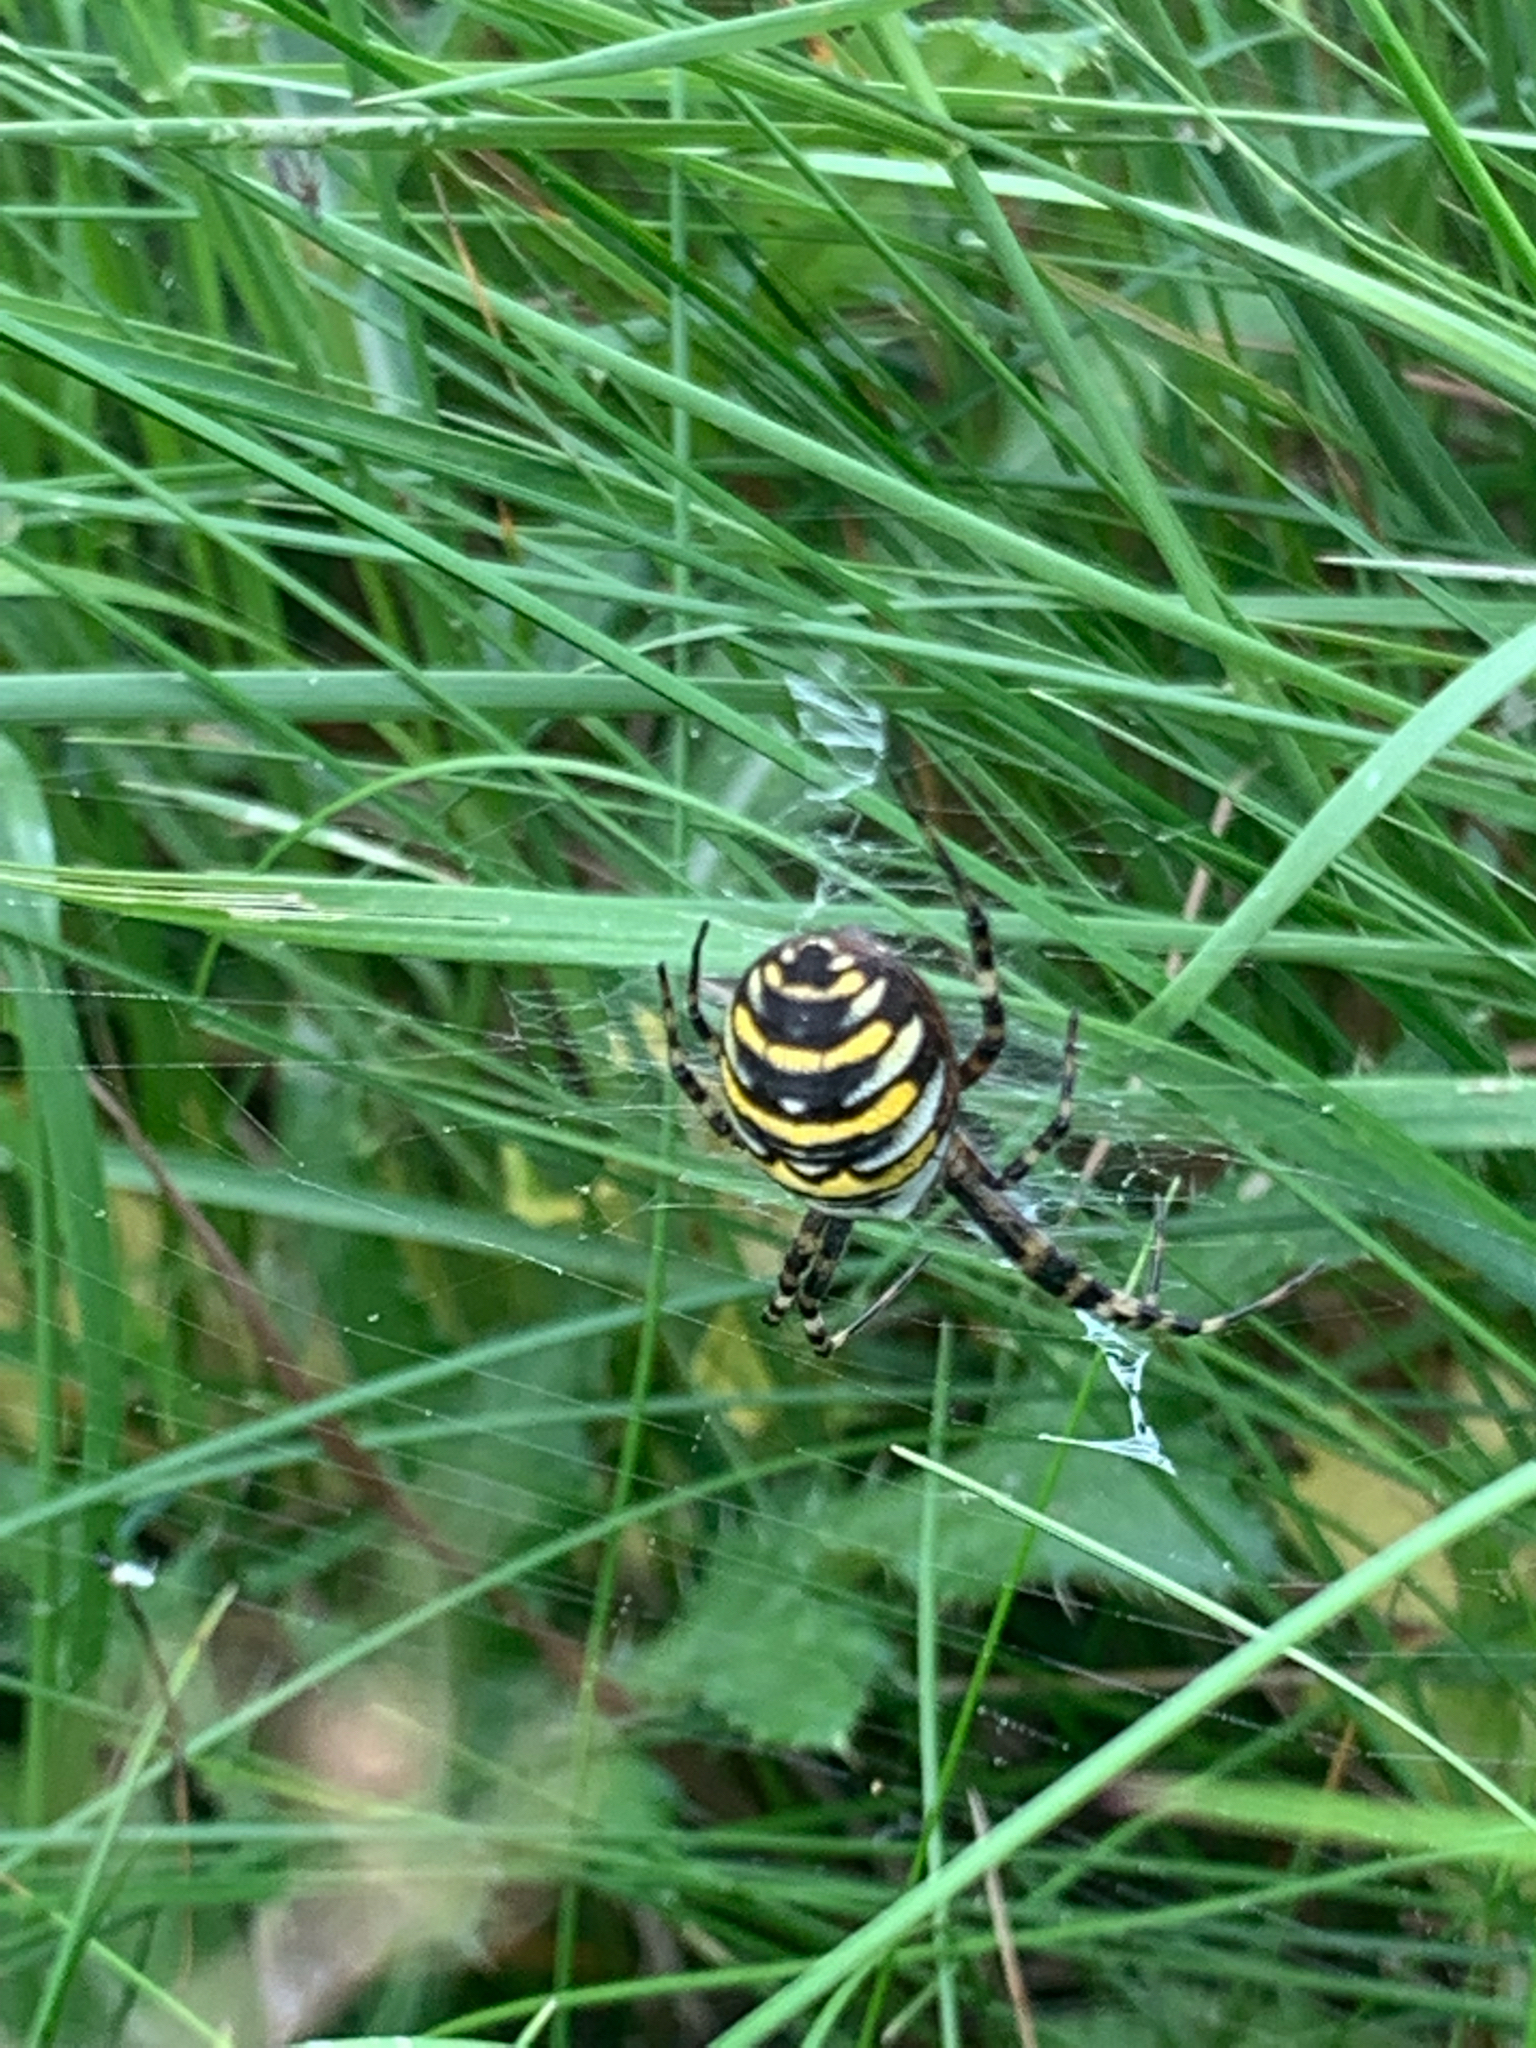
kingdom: Animalia
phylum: Arthropoda
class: Arachnida
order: Araneae
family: Araneidae
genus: Argiope
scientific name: Argiope bruennichi
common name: Wasp spider
